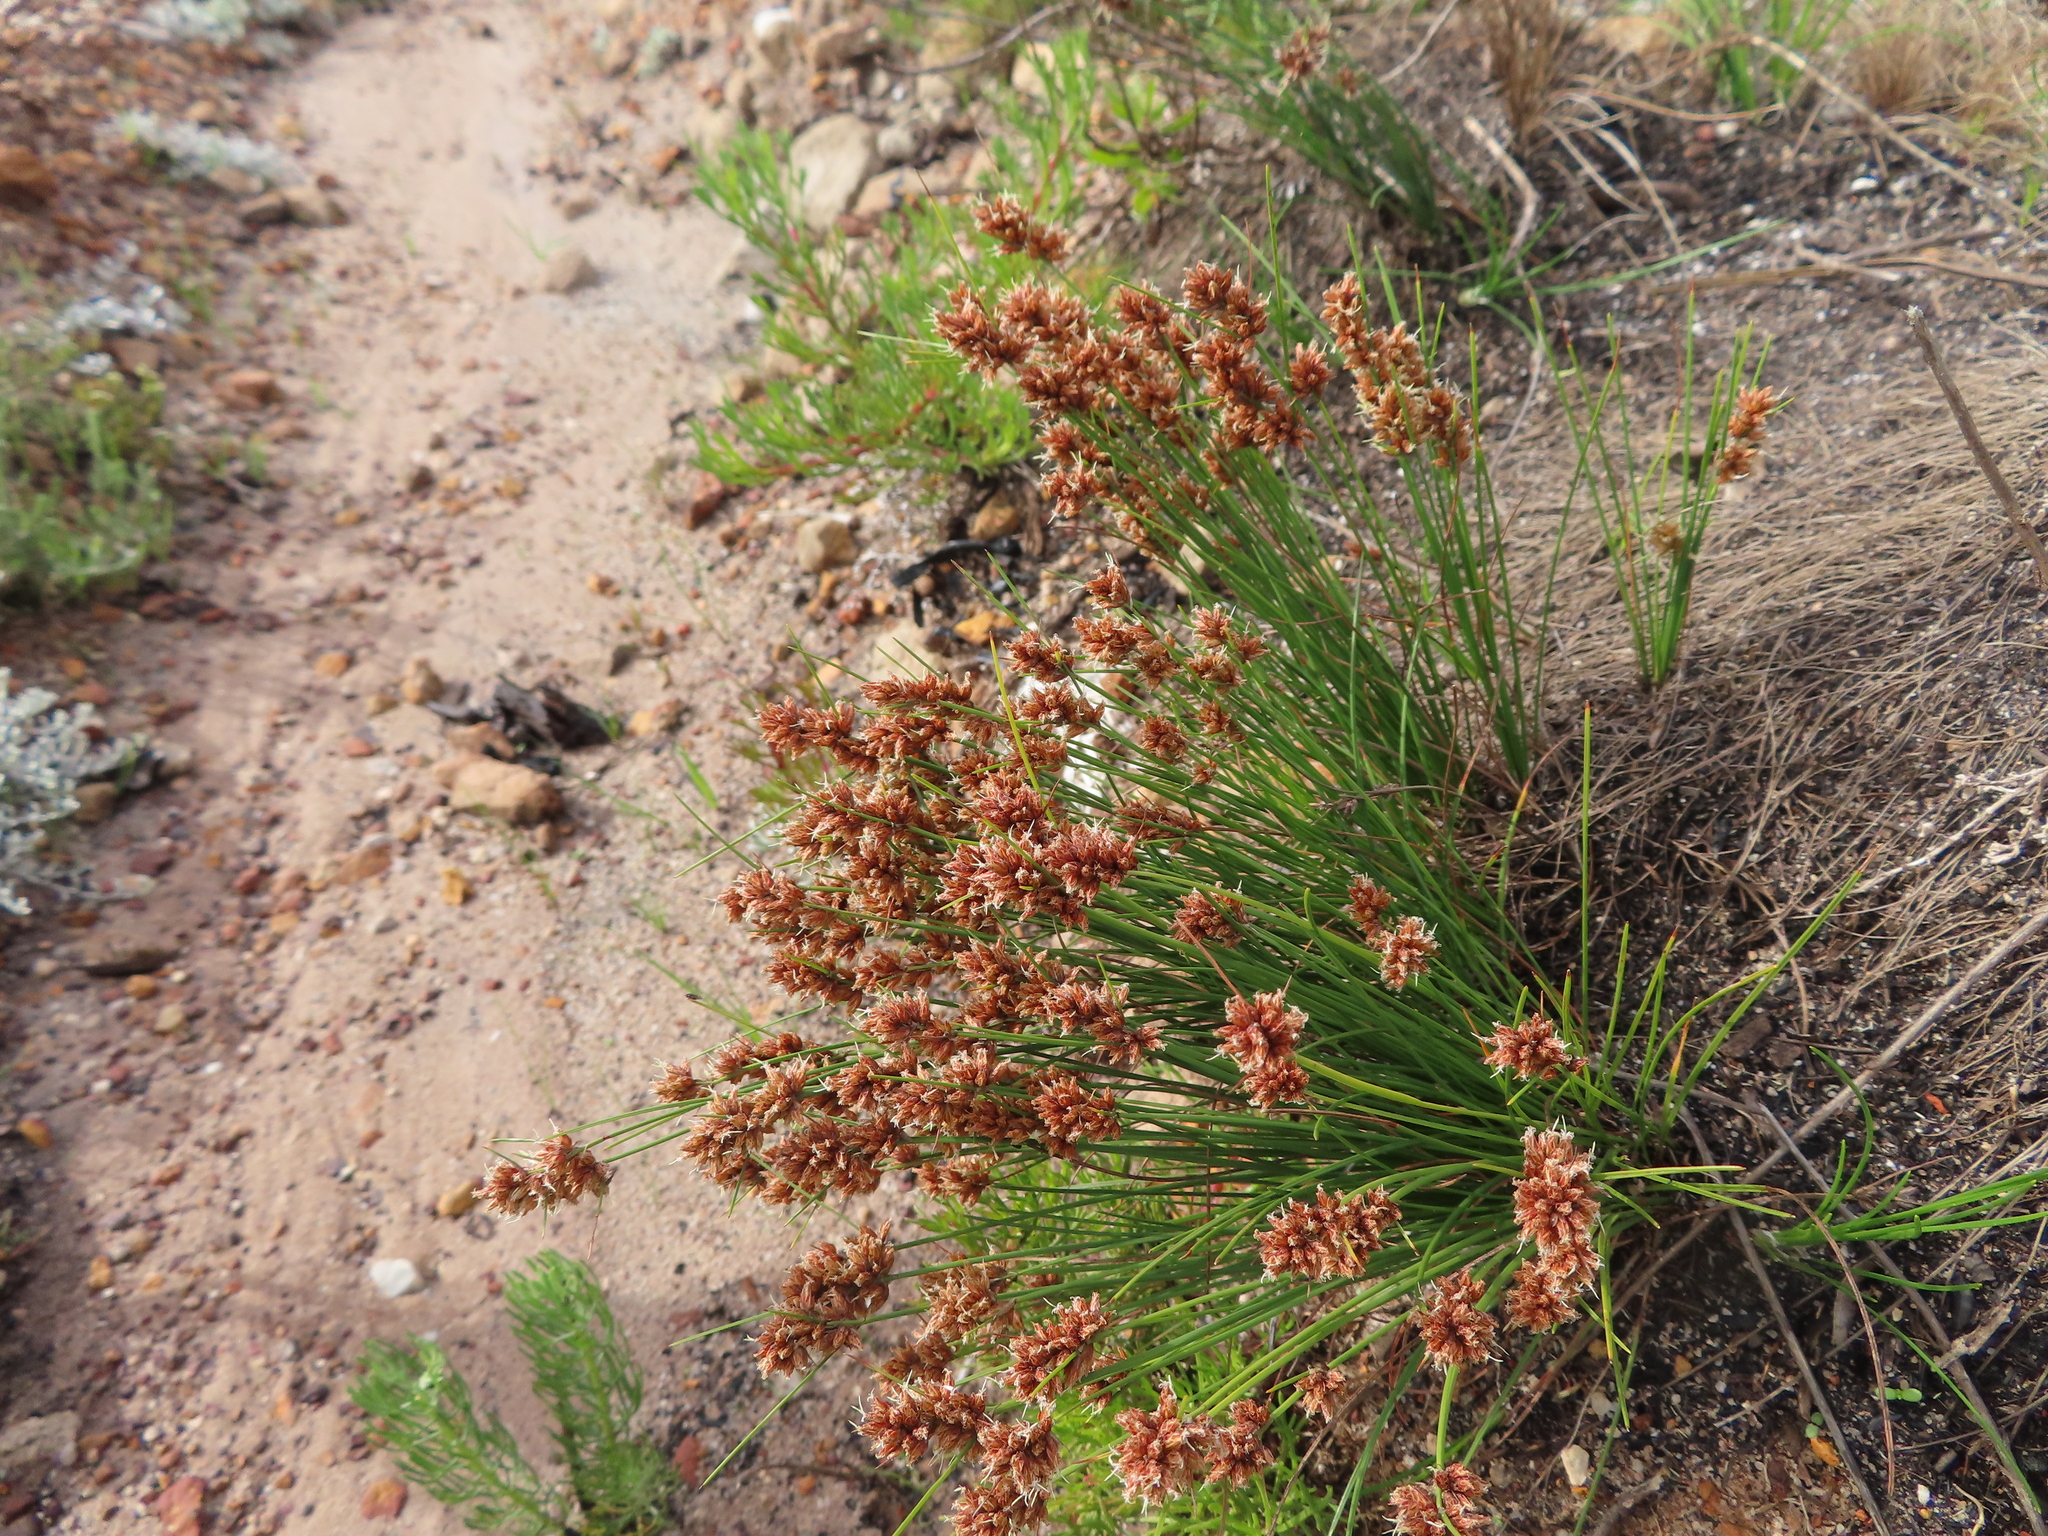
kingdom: Plantae
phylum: Tracheophyta
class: Liliopsida
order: Poales
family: Cyperaceae
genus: Ficinia
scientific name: Ficinia bulbosa
